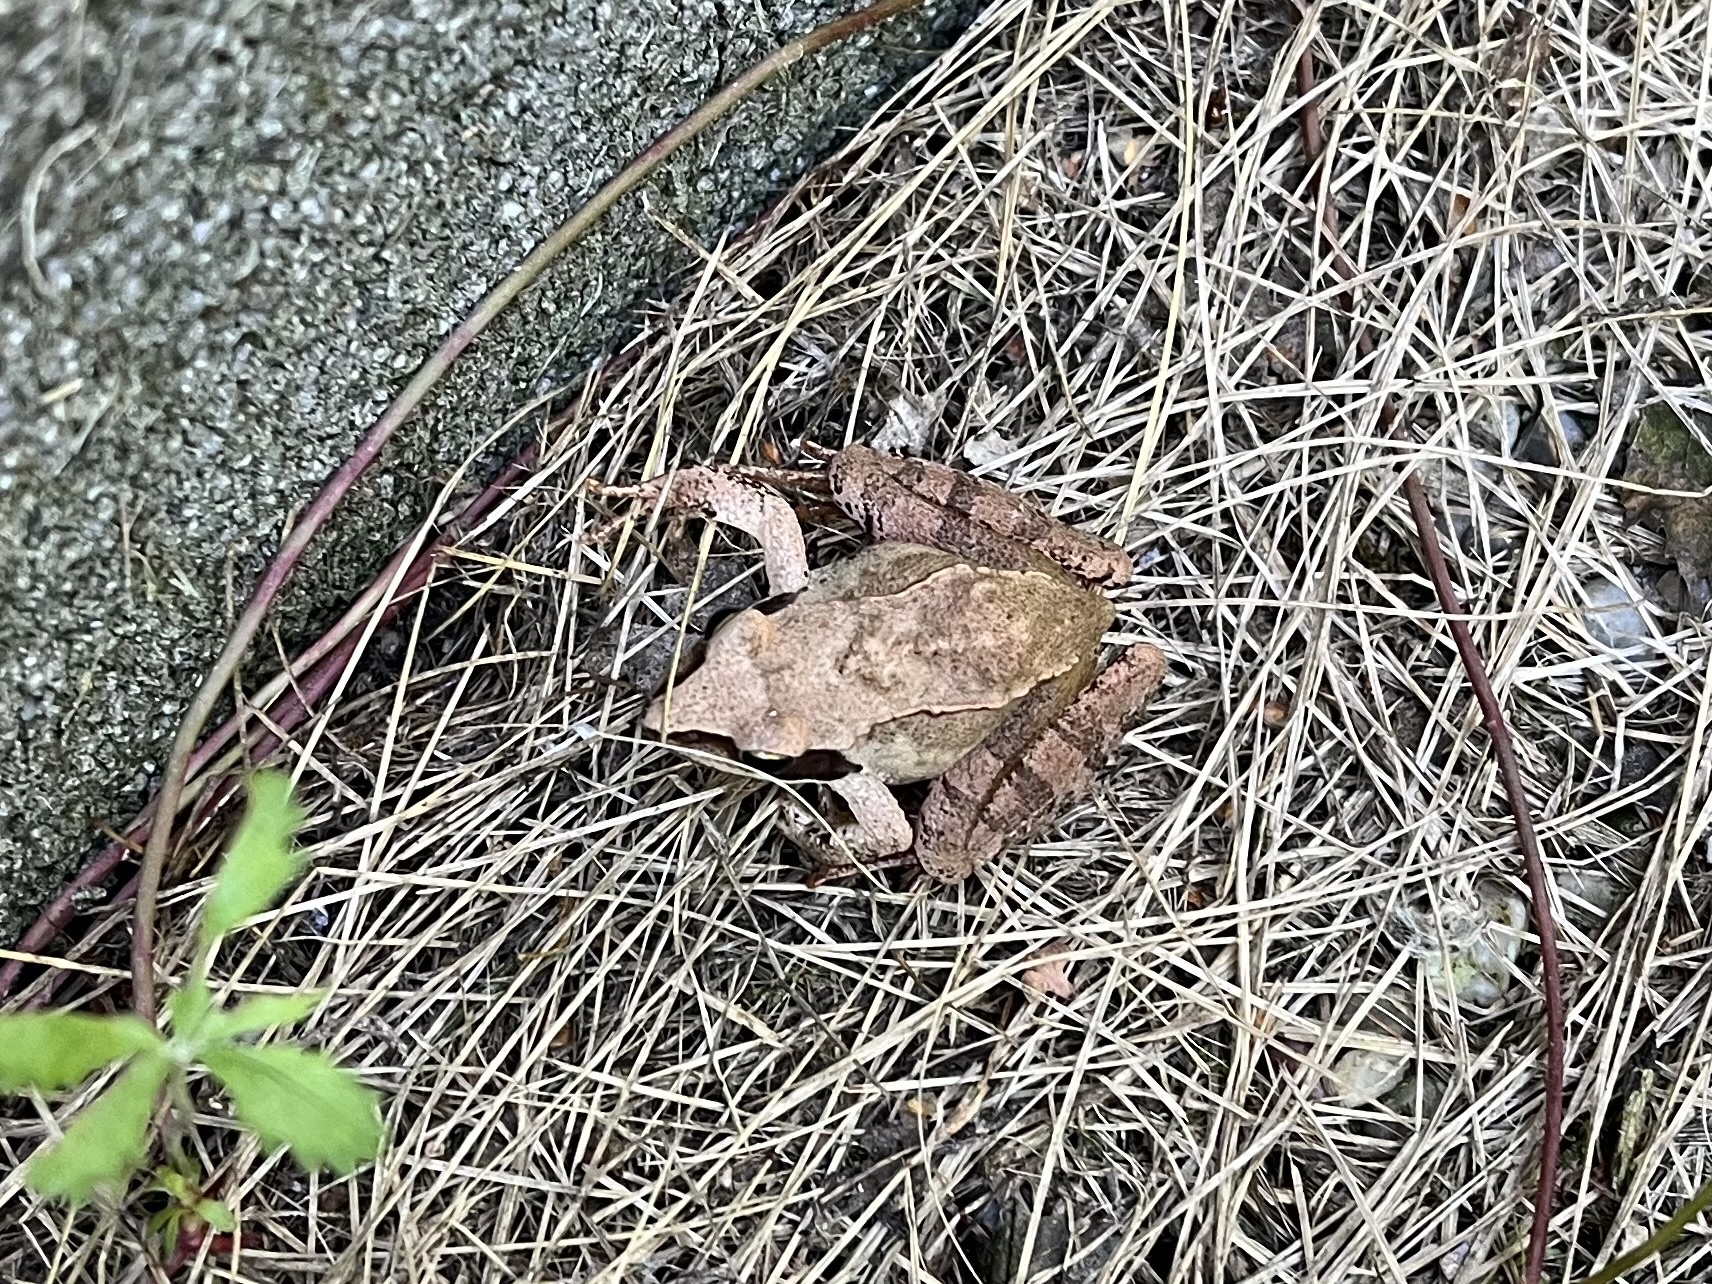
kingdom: Animalia
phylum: Chordata
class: Amphibia
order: Anura
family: Ranidae
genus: Rana
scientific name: Rana dalmatina
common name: Agile frog
